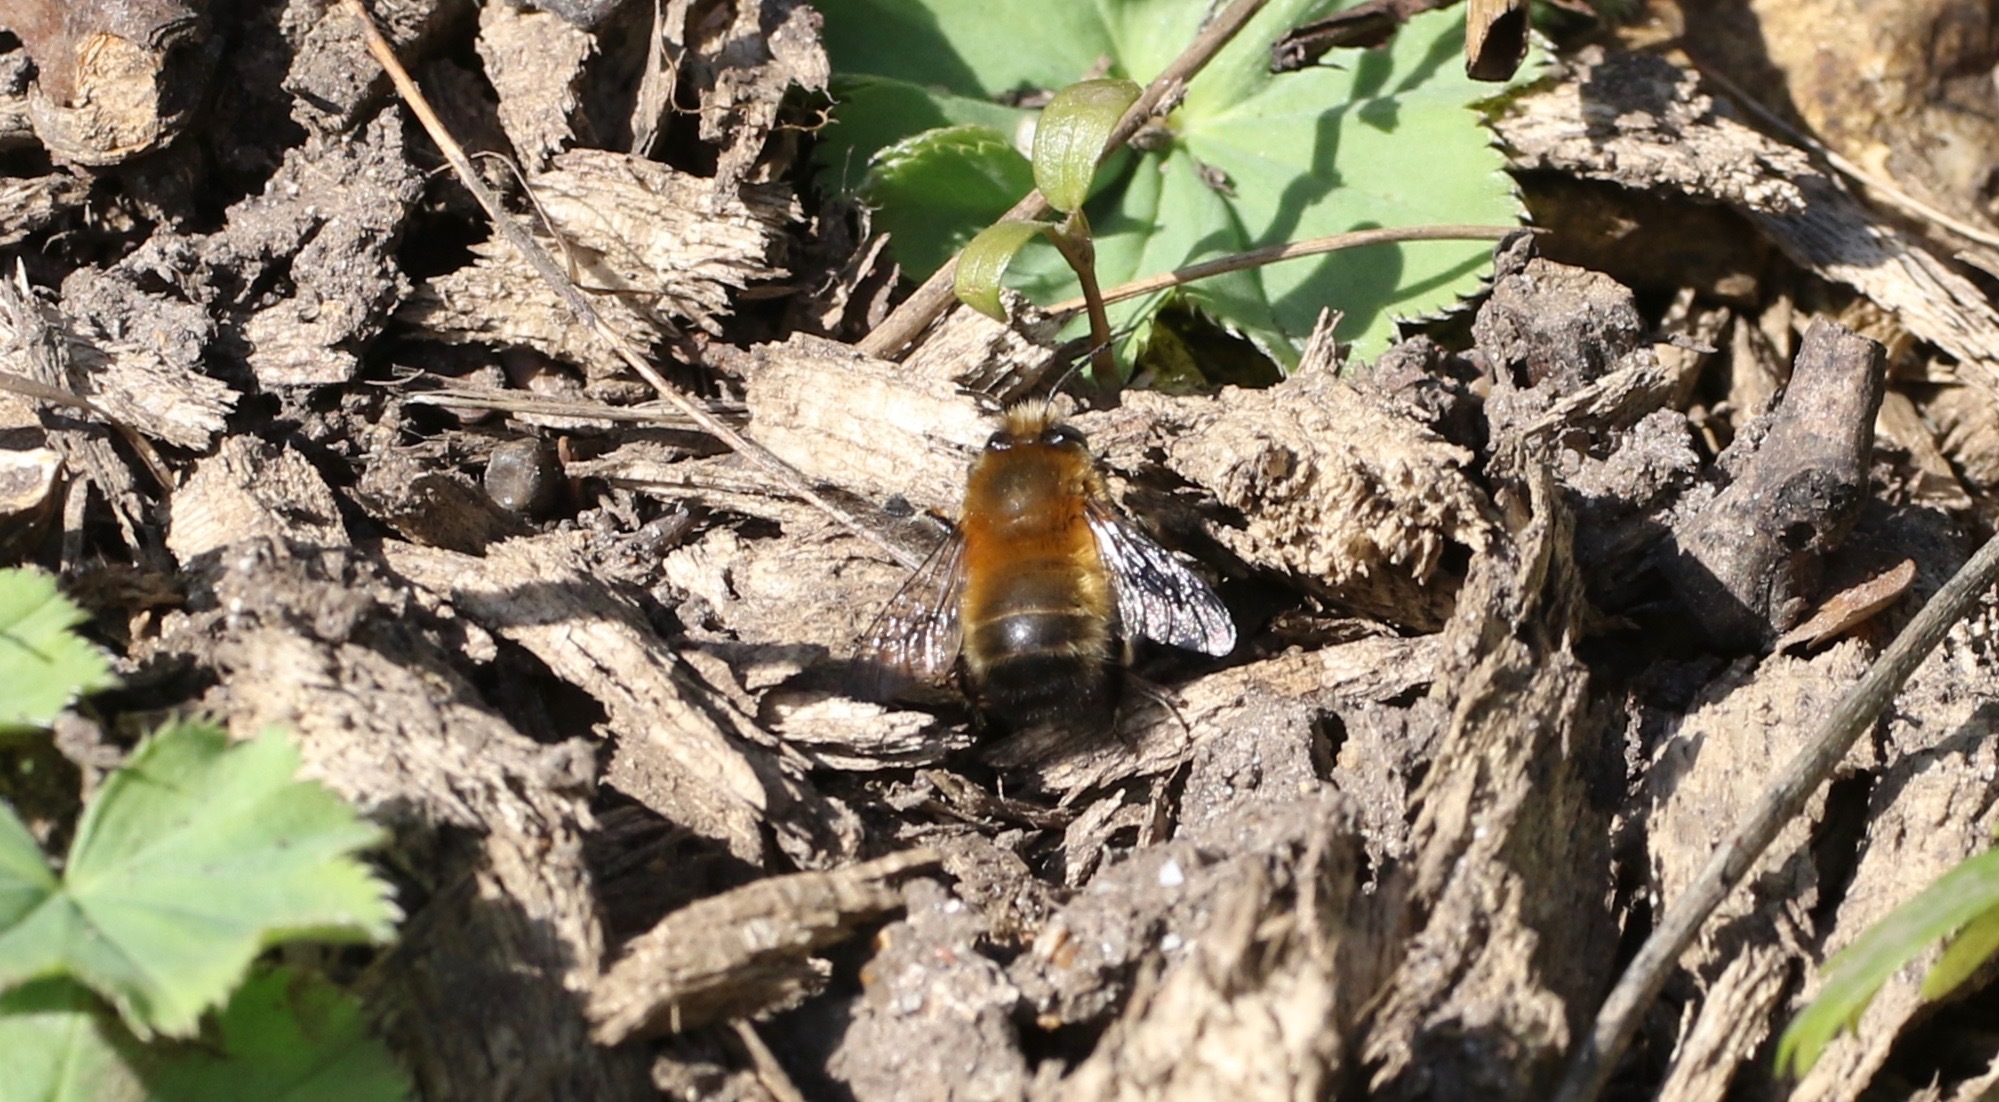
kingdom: Animalia
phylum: Arthropoda
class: Insecta
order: Hymenoptera
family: Apidae
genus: Anthophora
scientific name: Anthophora plumipes
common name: Hairy-footed flower bee
